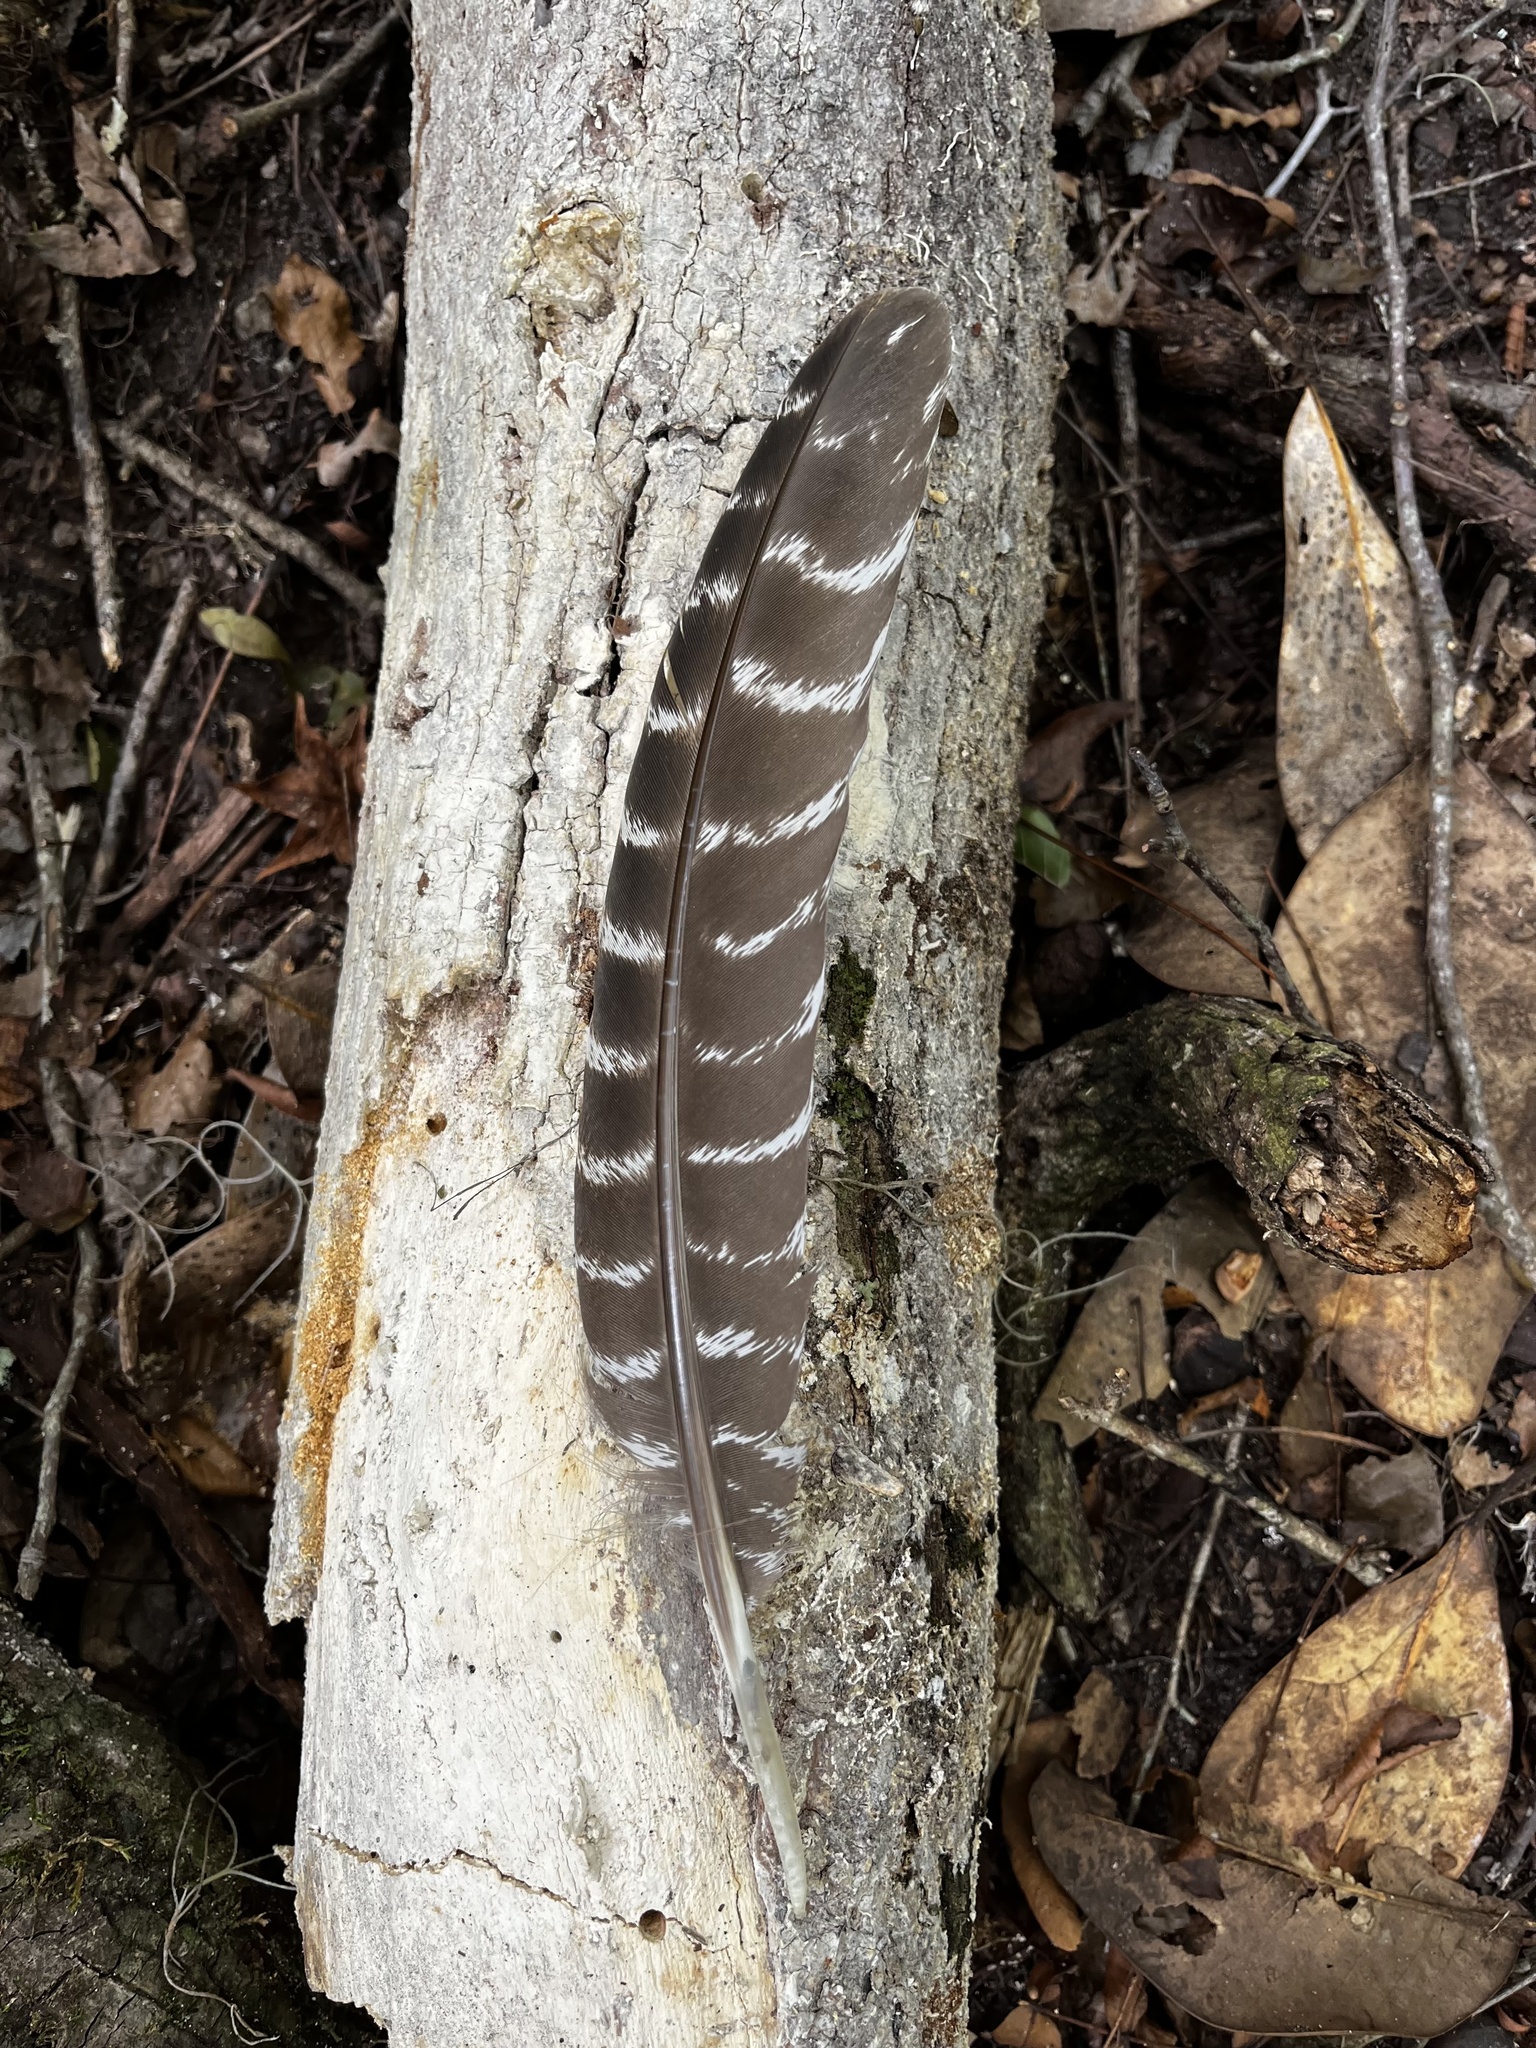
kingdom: Animalia
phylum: Chordata
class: Aves
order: Galliformes
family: Phasianidae
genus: Meleagris
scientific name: Meleagris gallopavo
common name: Wild turkey
